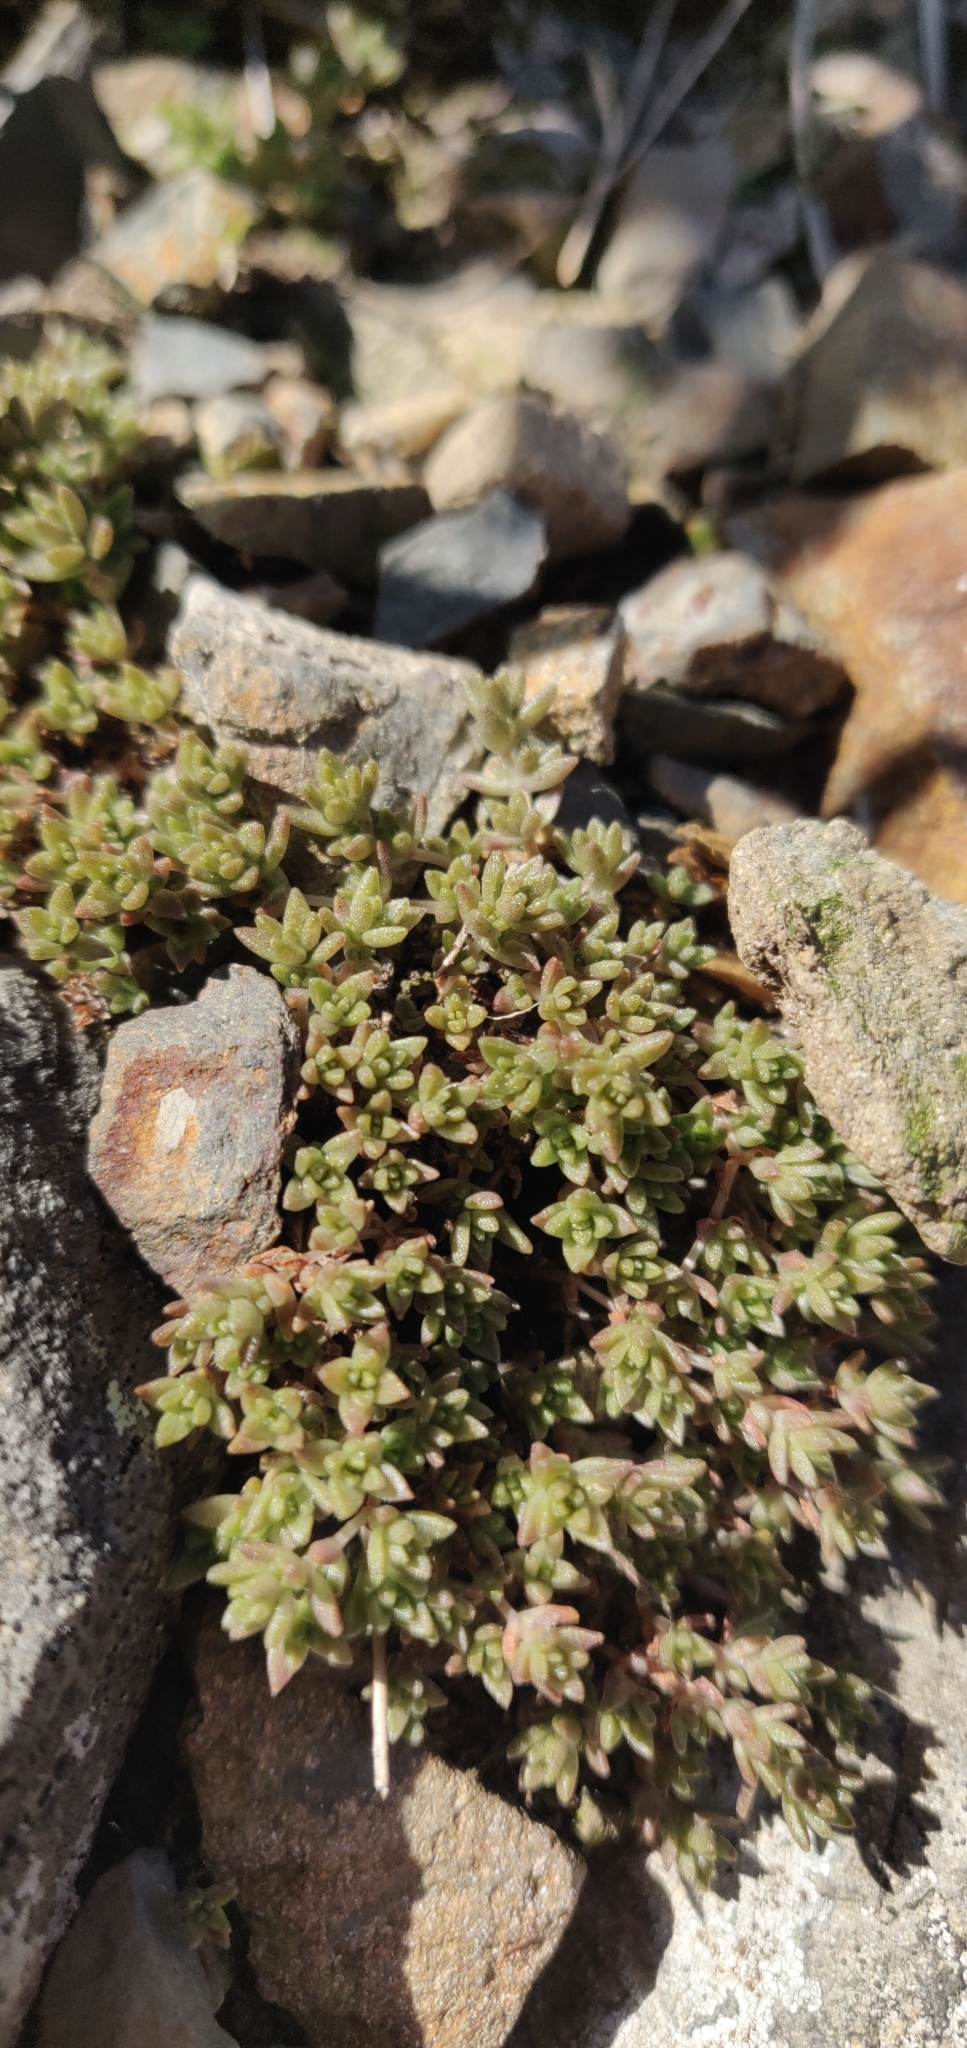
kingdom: Plantae
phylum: Tracheophyta
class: Magnoliopsida
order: Saxifragales
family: Crassulaceae
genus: Crassula
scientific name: Crassula moschata
